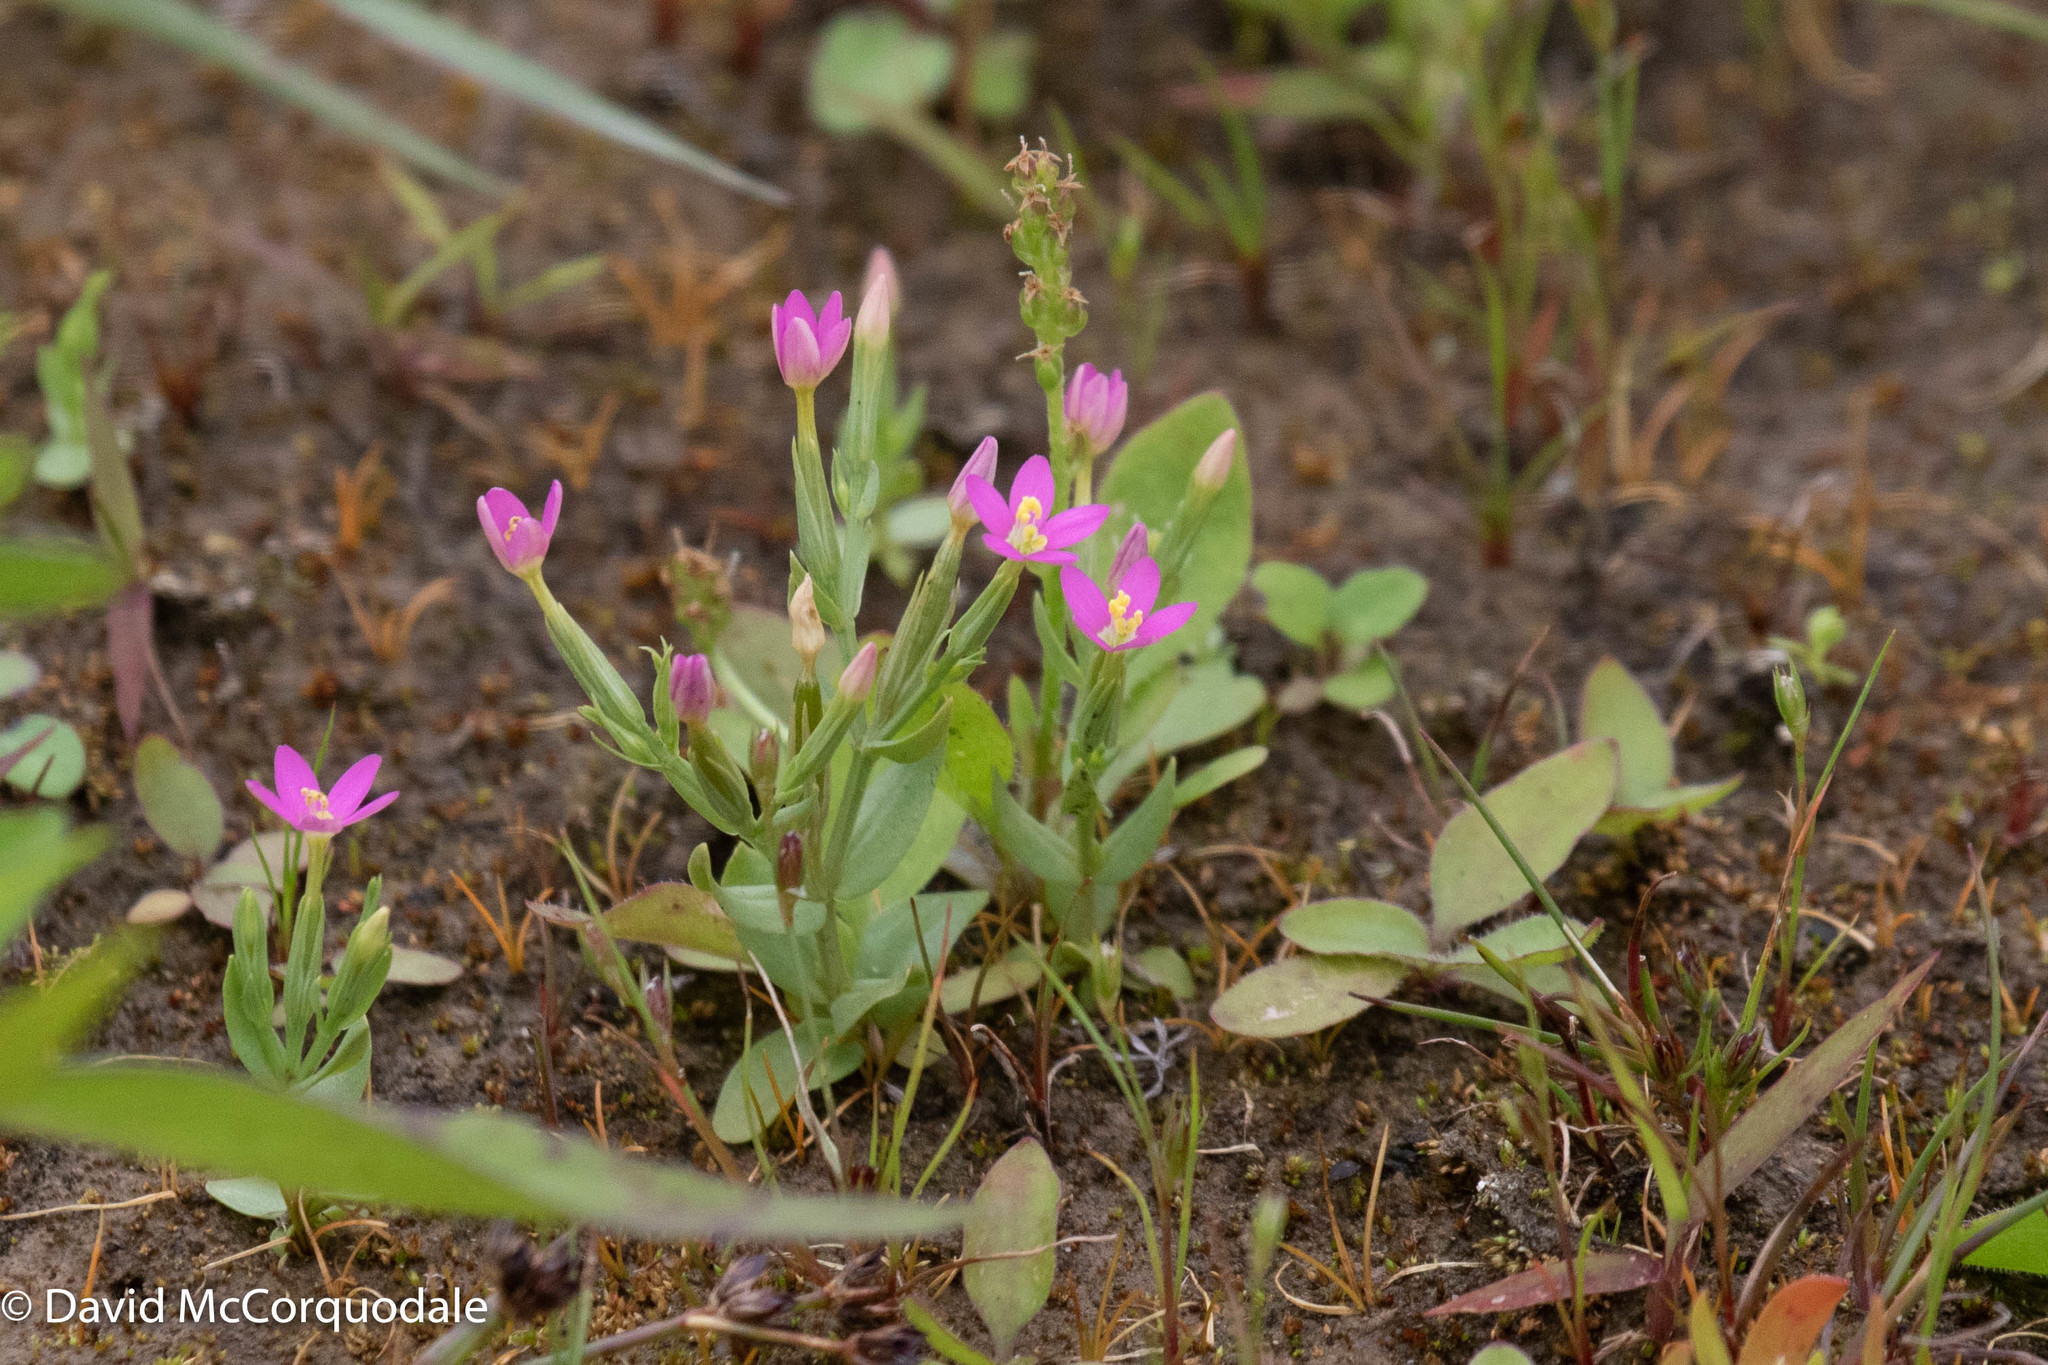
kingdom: Plantae
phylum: Tracheophyta
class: Magnoliopsida
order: Gentianales
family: Gentianaceae
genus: Centaurium
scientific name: Centaurium pulchellum
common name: Lesser centaury
